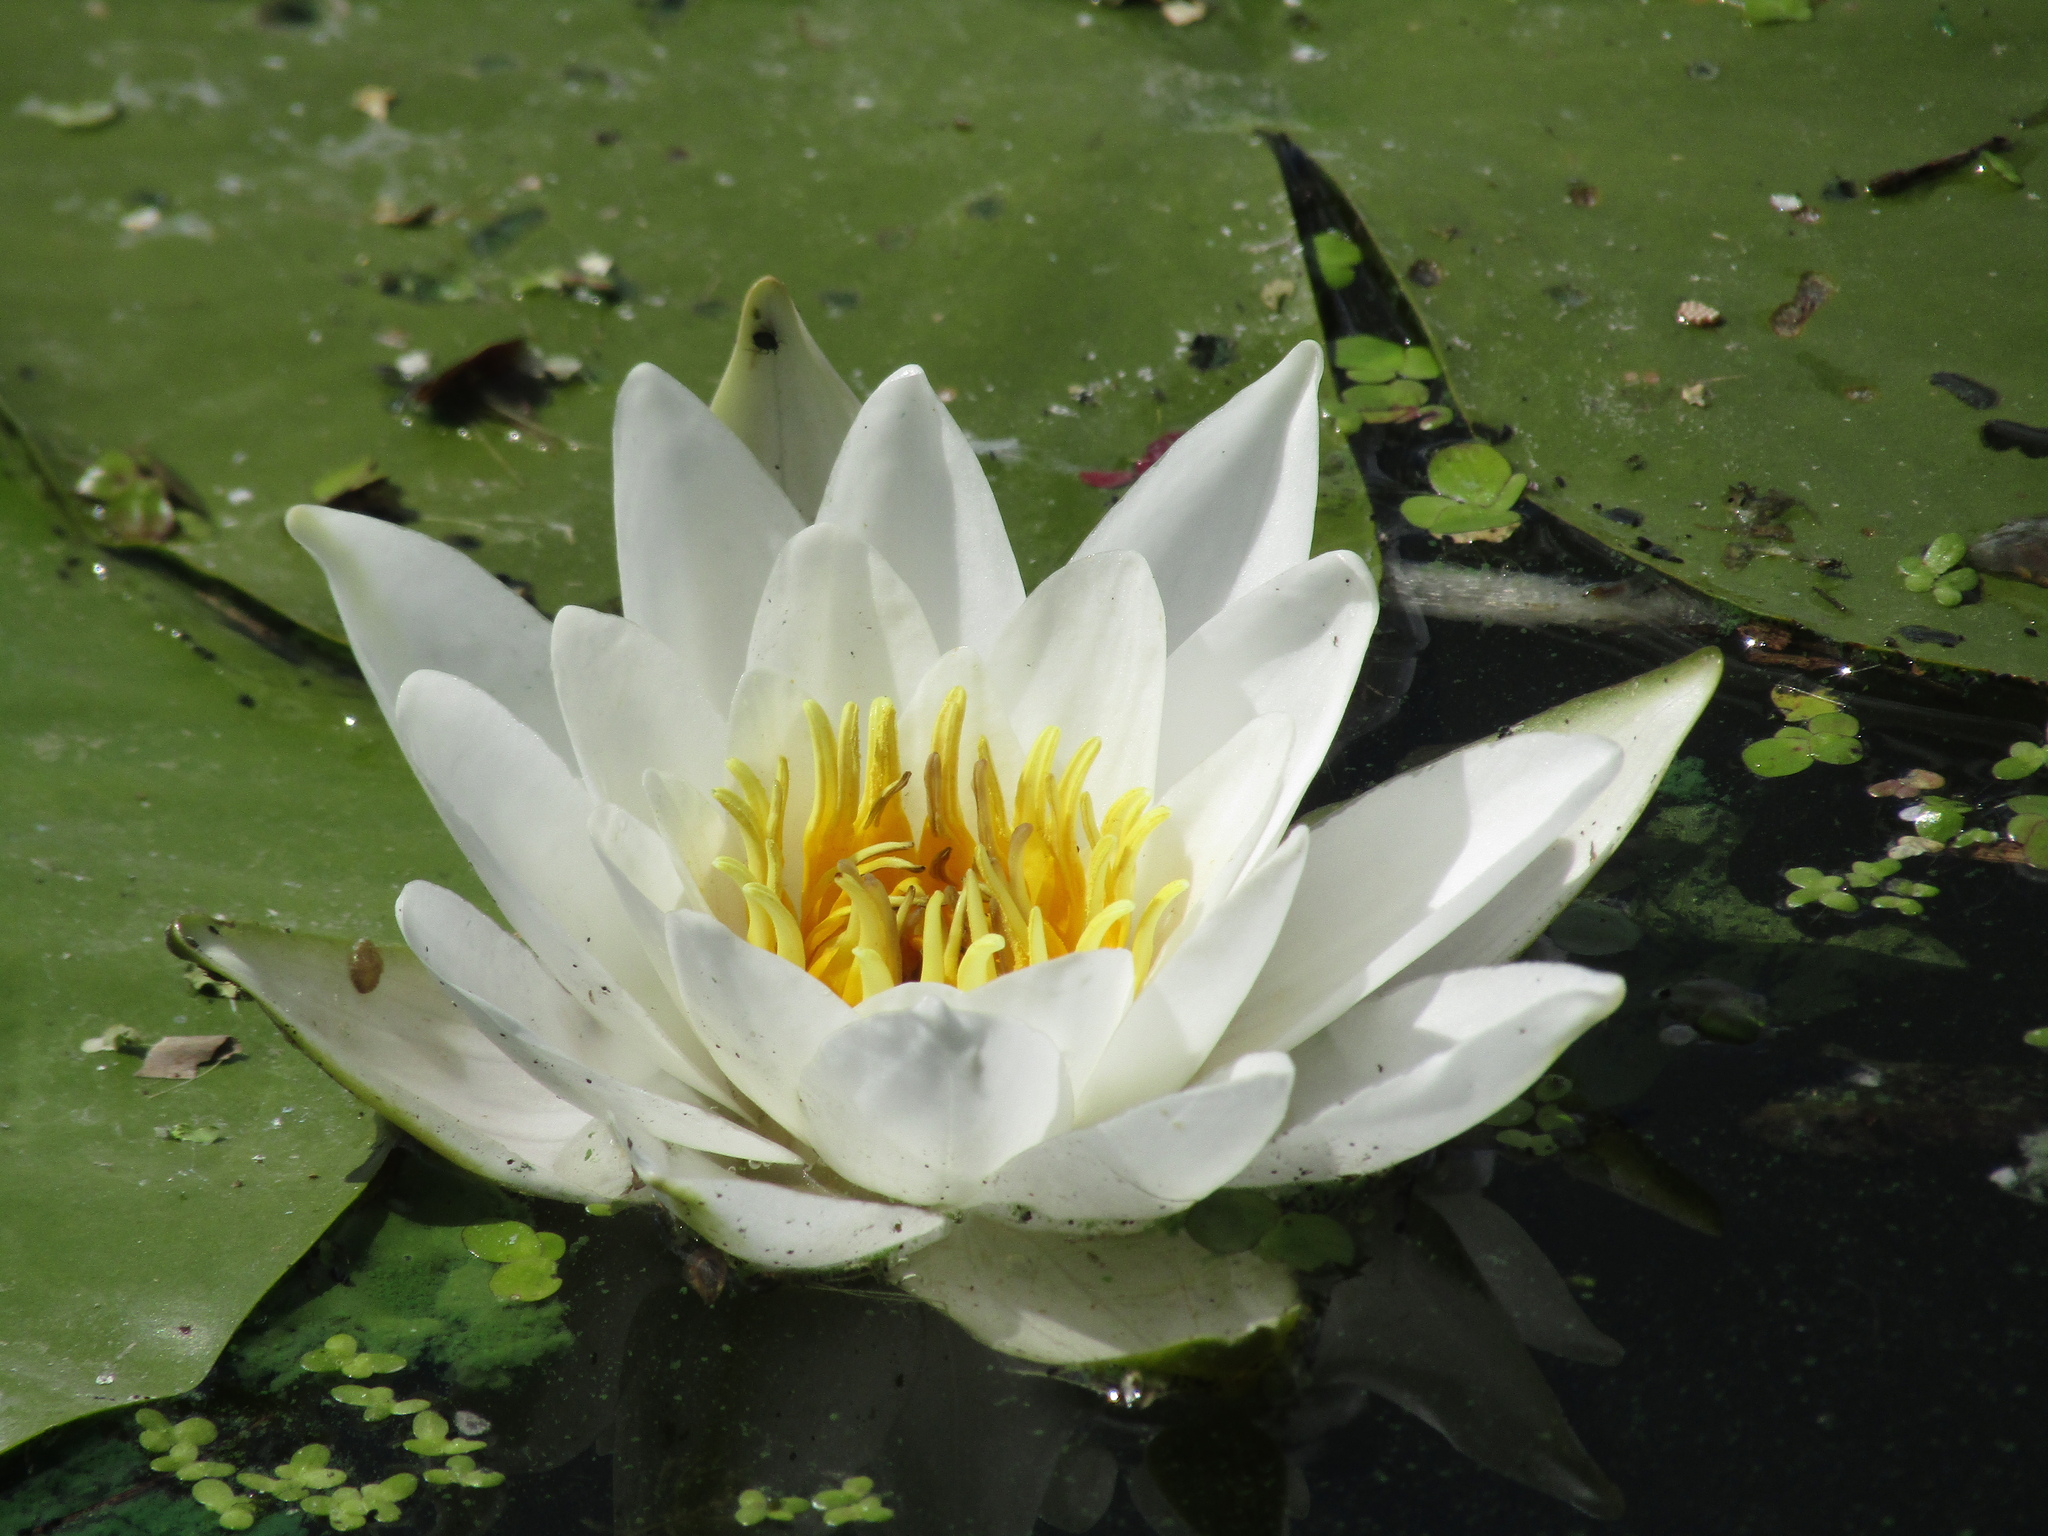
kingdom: Plantae
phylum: Tracheophyta
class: Magnoliopsida
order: Nymphaeales
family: Nymphaeaceae
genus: Nymphaea
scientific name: Nymphaea candida
